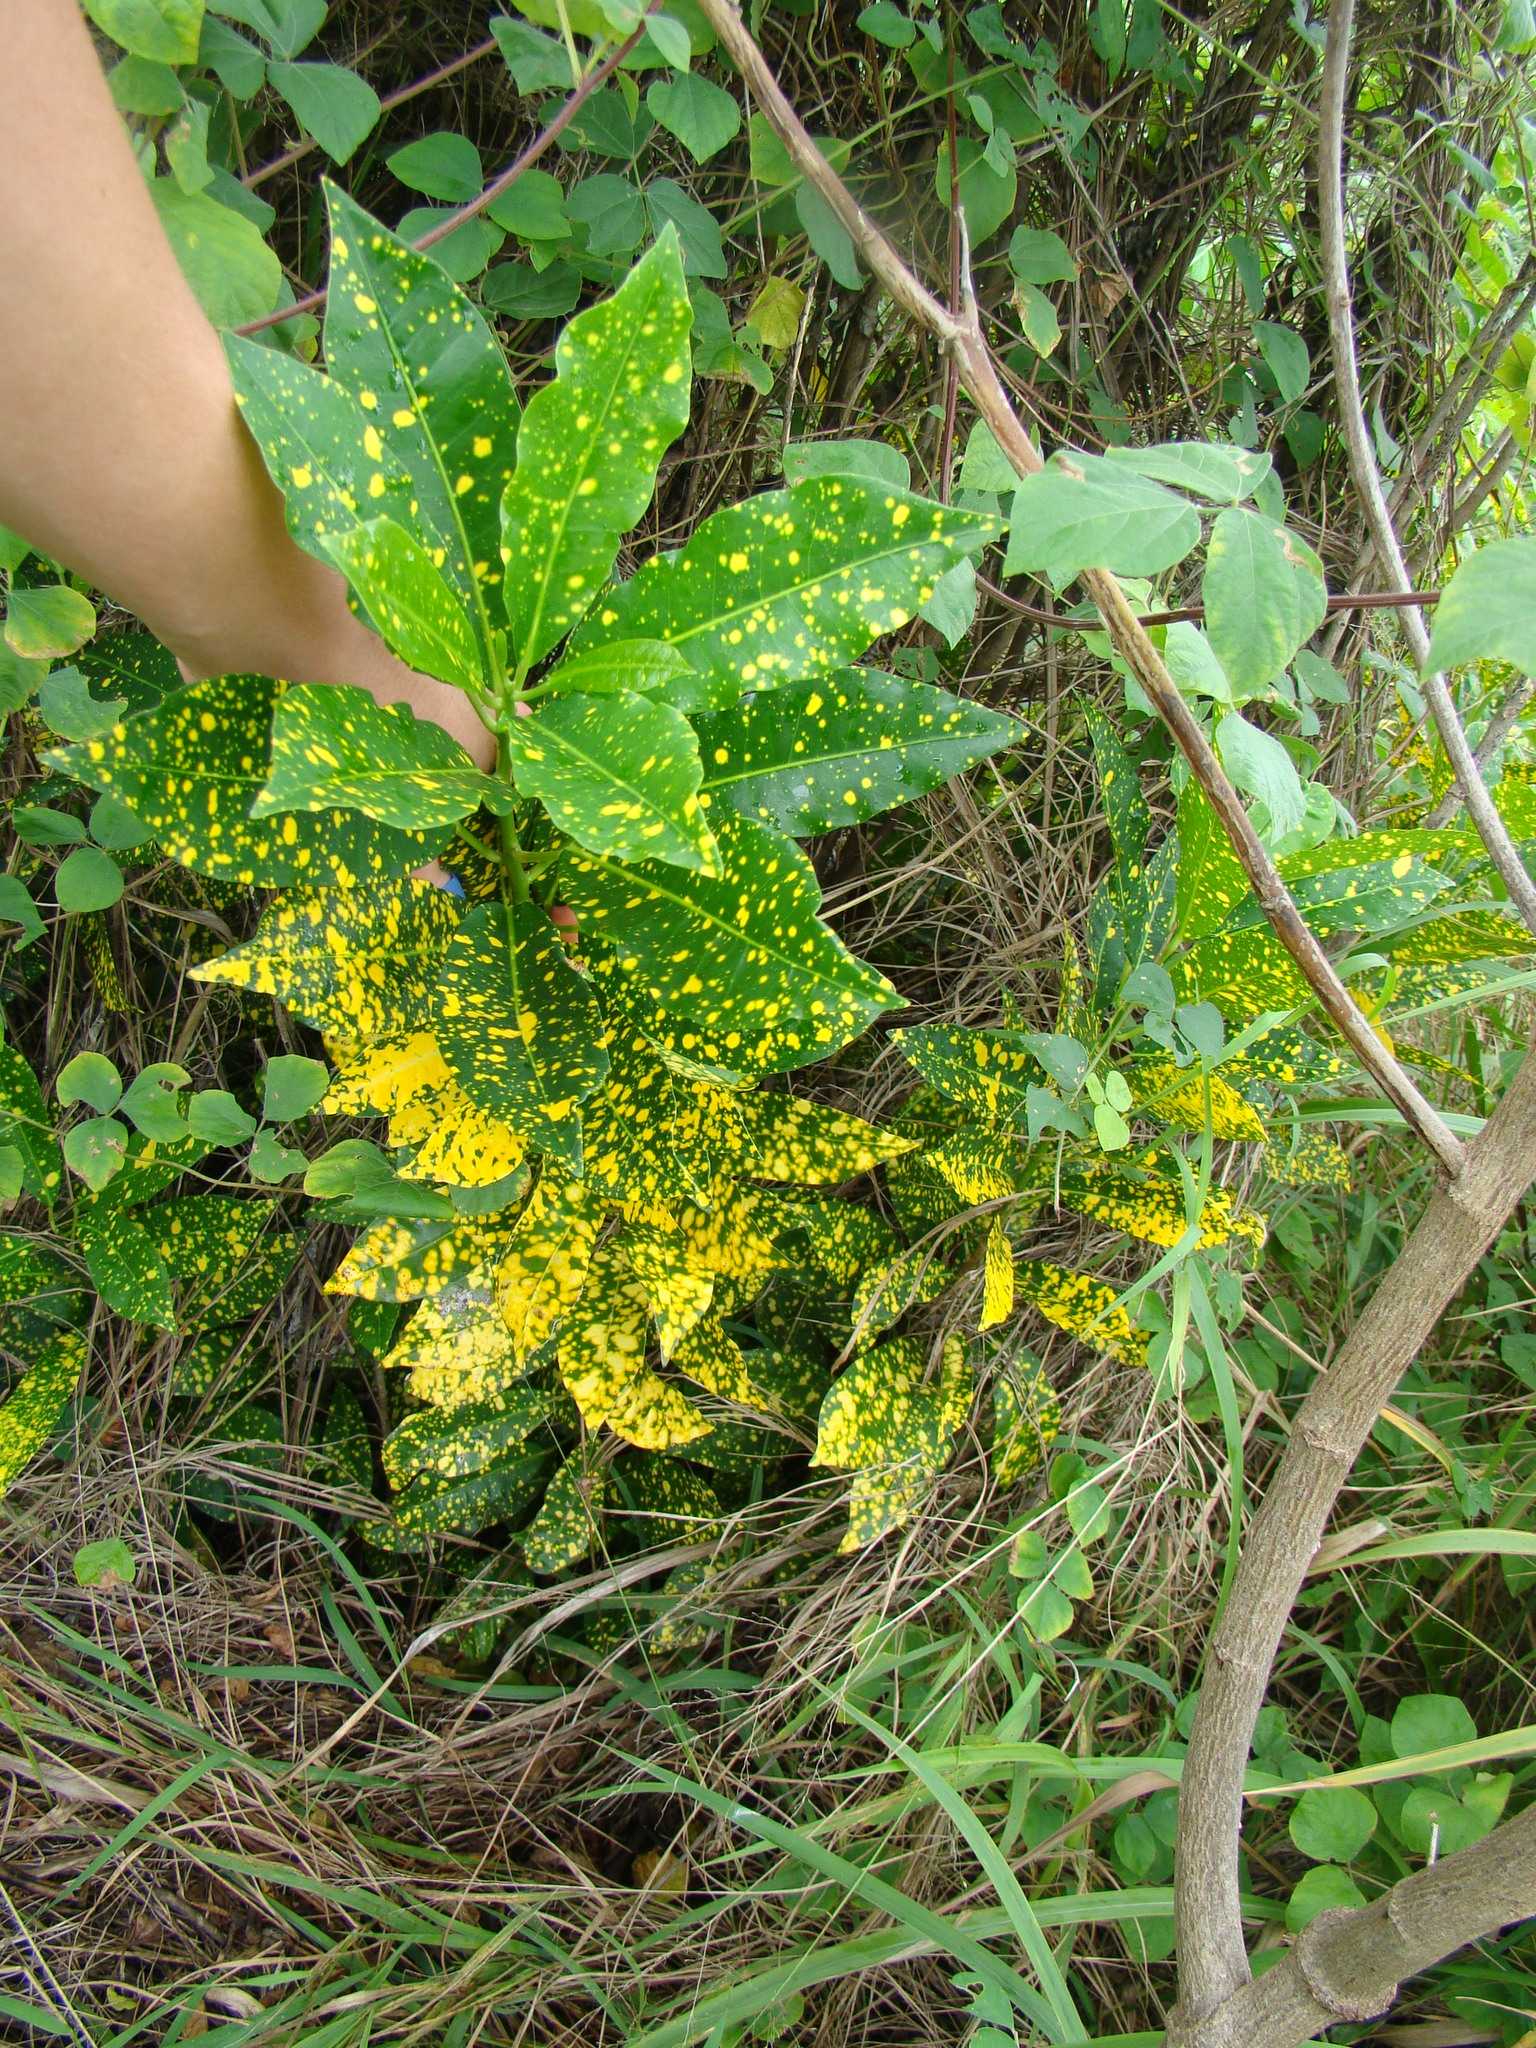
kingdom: Plantae
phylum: Tracheophyta
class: Magnoliopsida
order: Malpighiales
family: Euphorbiaceae
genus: Codiaeum
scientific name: Codiaeum variegatum
